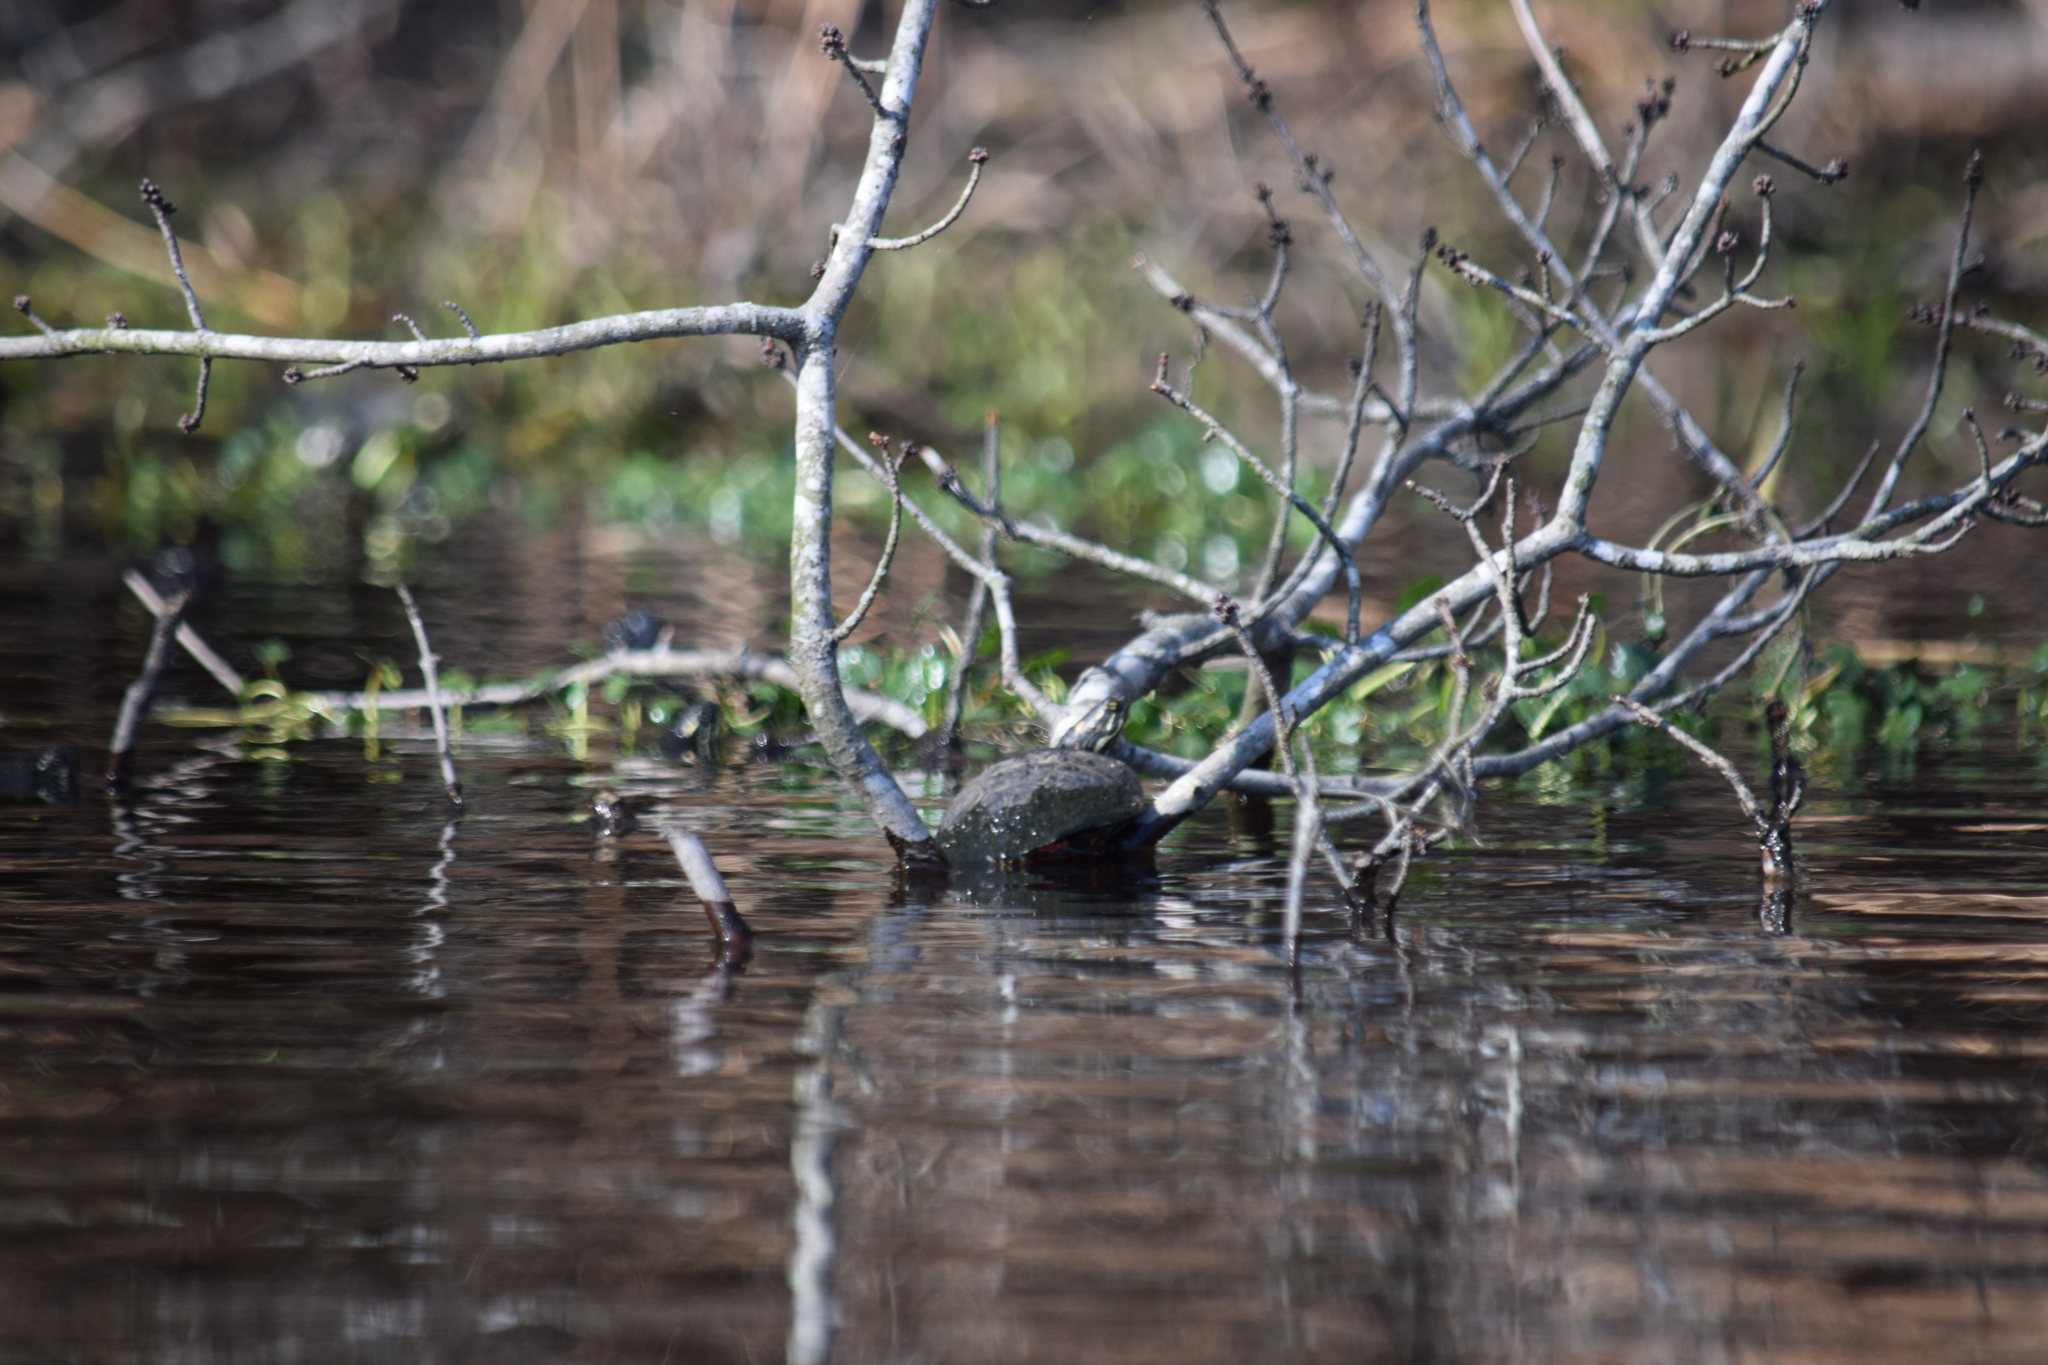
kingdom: Animalia
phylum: Chordata
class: Testudines
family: Emydidae
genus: Chrysemys
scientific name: Chrysemys picta
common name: Painted turtle
